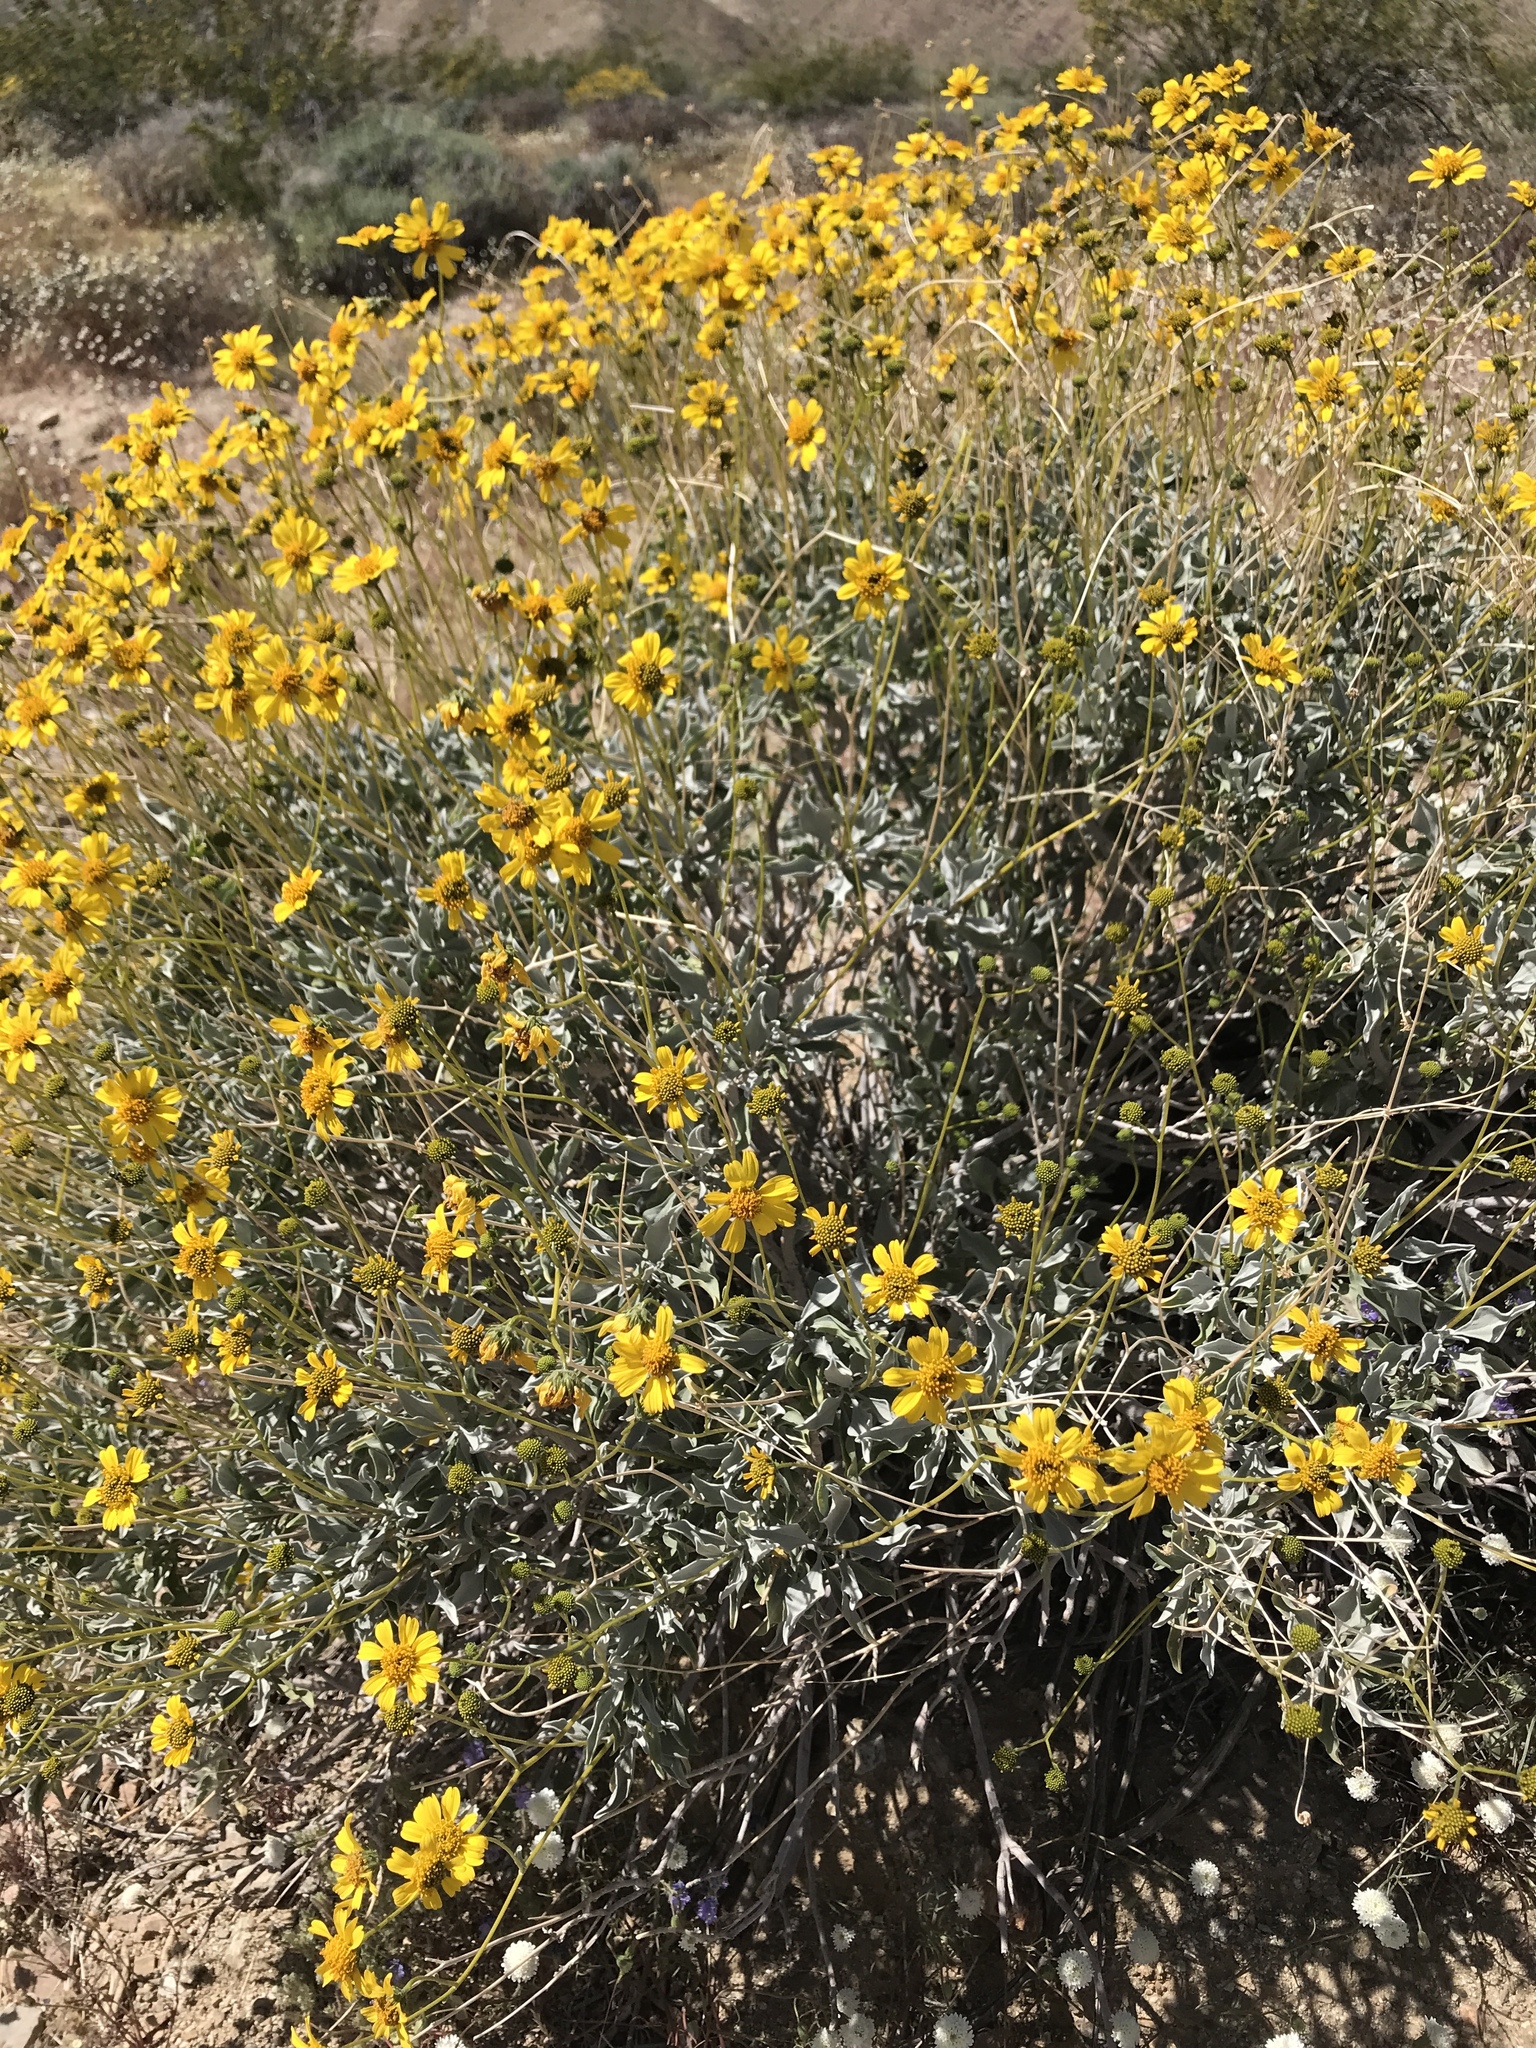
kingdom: Plantae
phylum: Tracheophyta
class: Magnoliopsida
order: Asterales
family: Asteraceae
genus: Encelia
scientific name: Encelia farinosa
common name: Brittlebush
